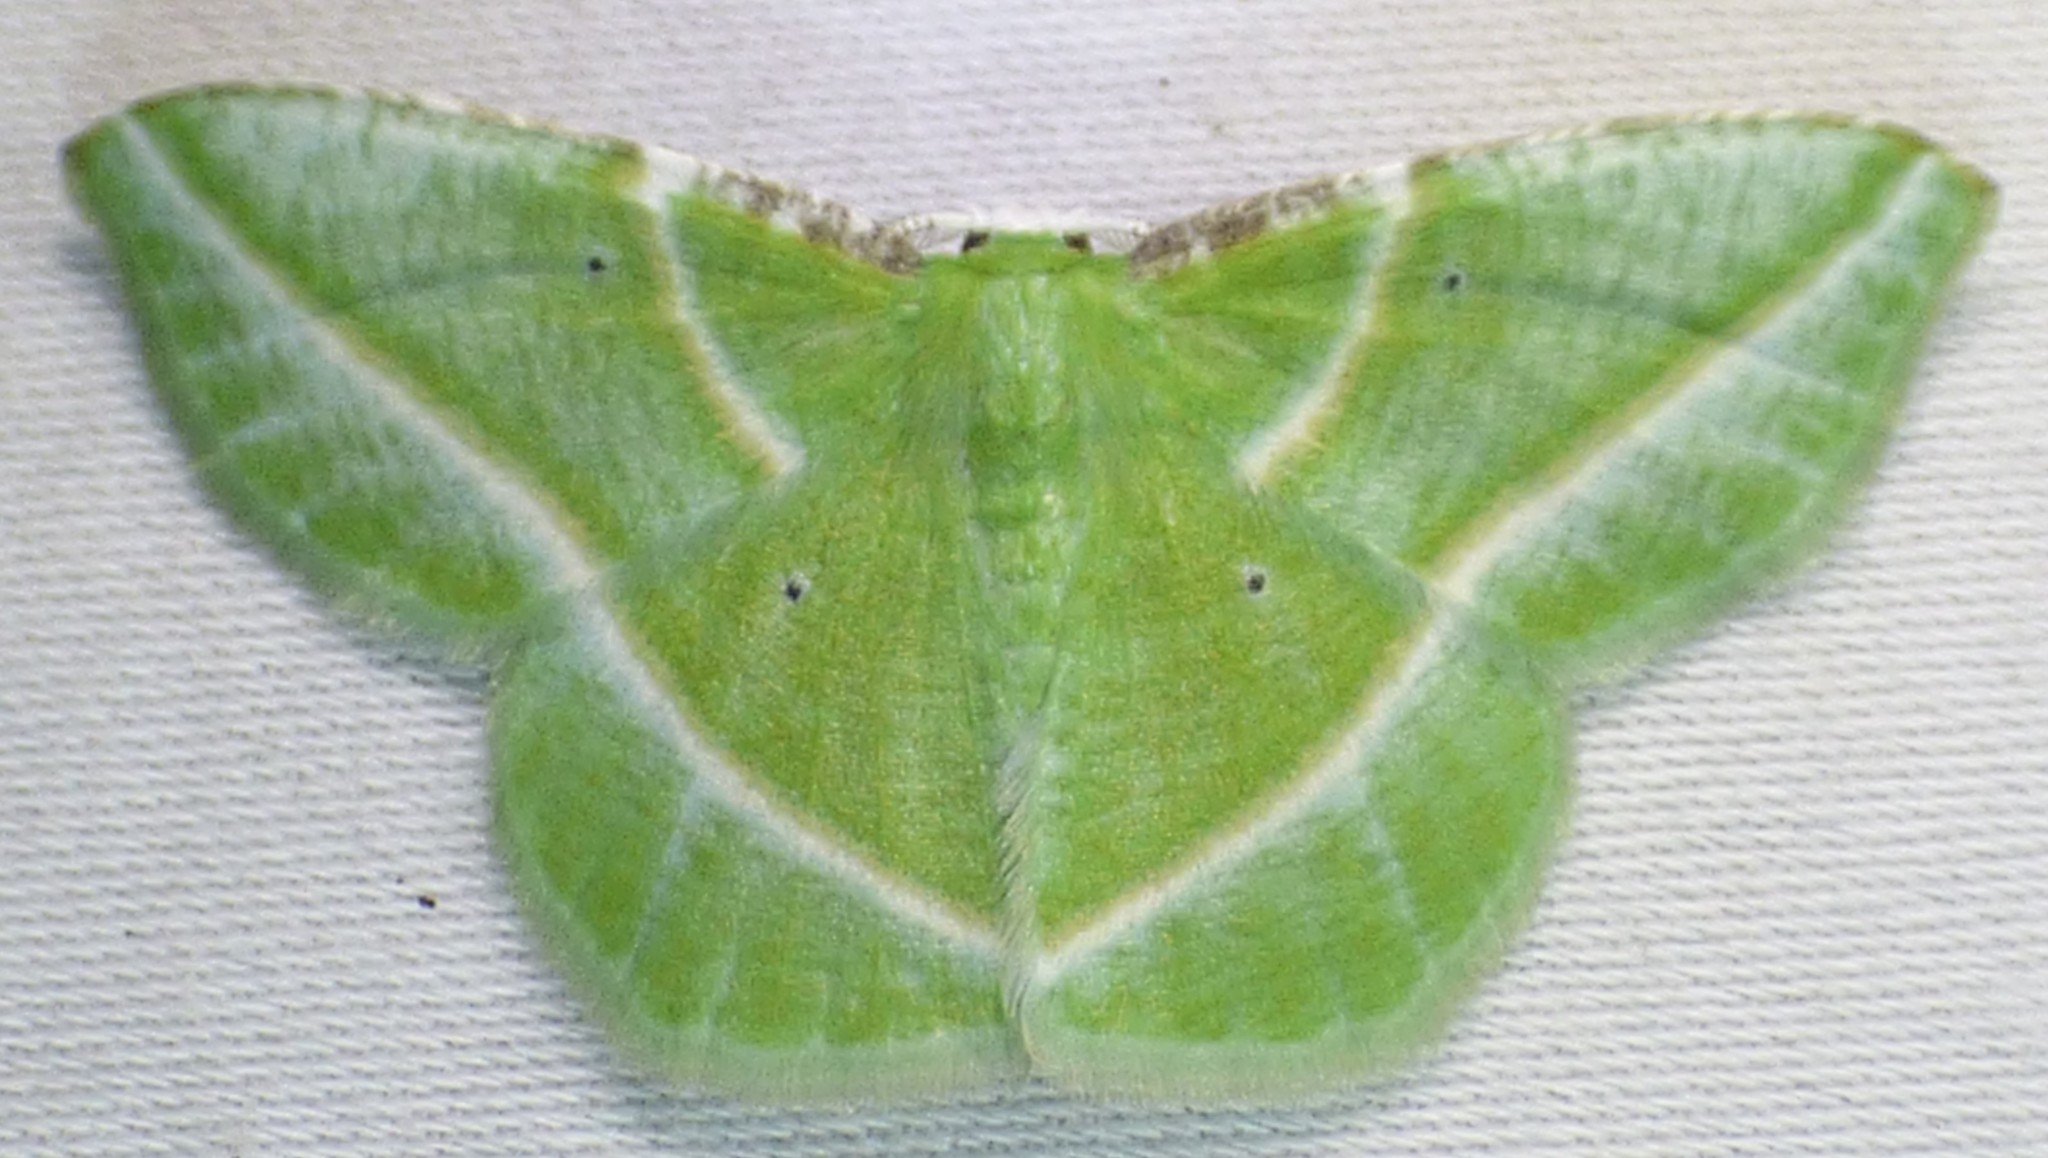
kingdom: Animalia
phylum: Arthropoda
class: Insecta
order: Lepidoptera
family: Geometridae
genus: Dichorda
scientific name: Dichorda iridaria
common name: Showy emerald
